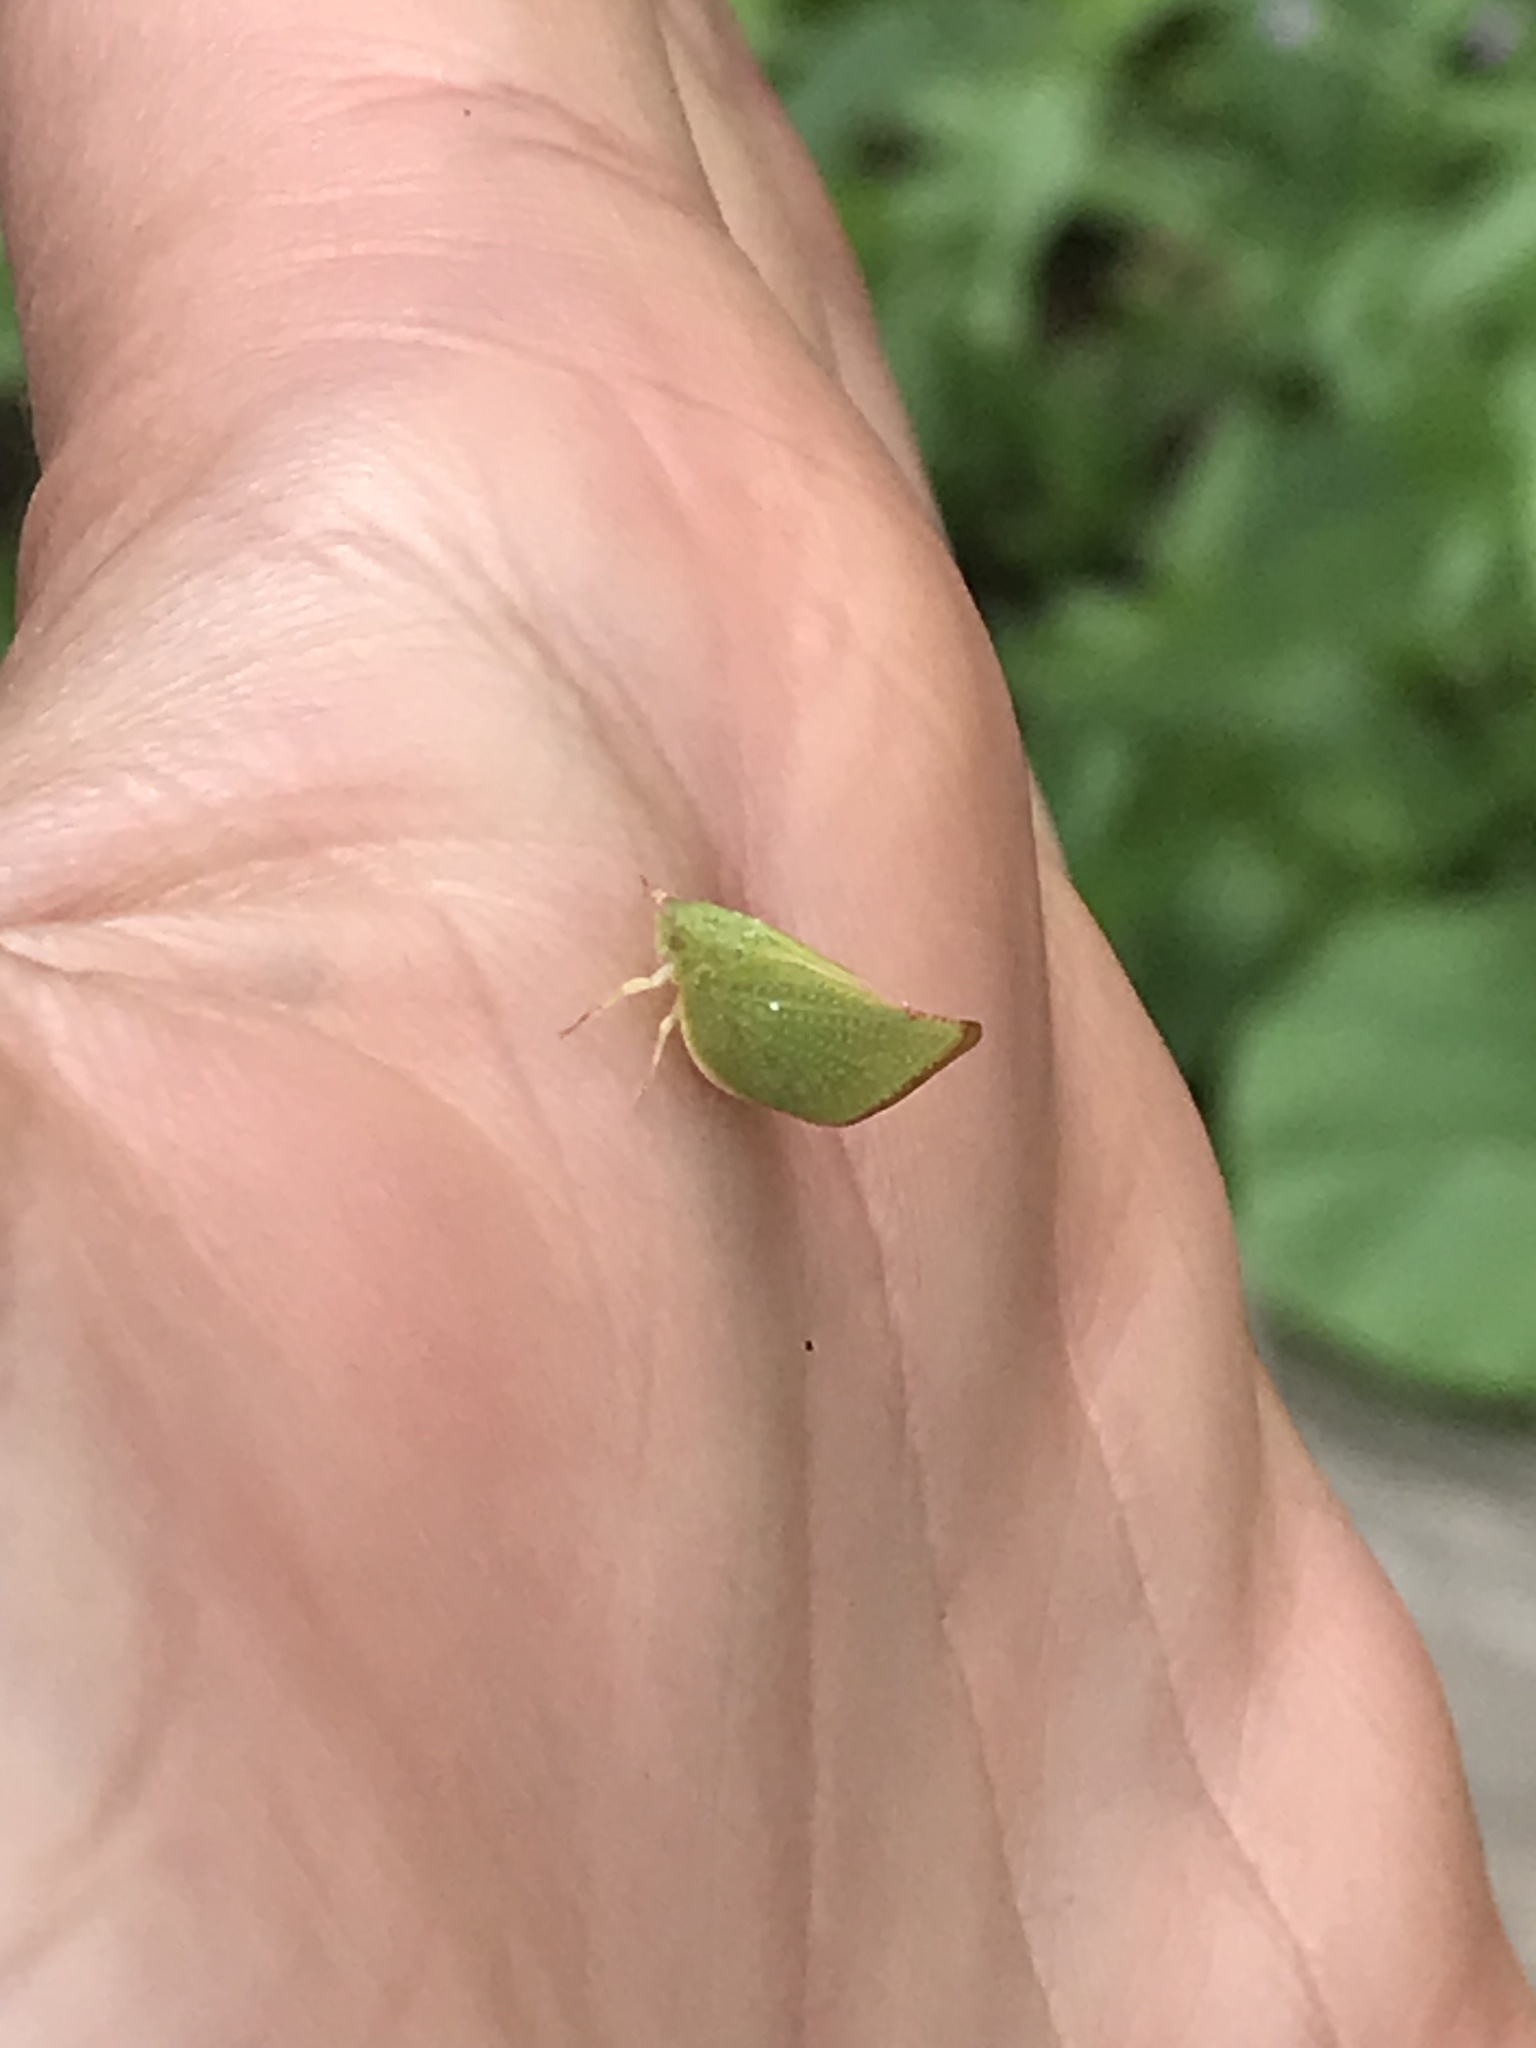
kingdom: Animalia
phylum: Arthropoda
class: Insecta
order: Hemiptera
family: Flatidae
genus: Siphanta
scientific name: Siphanta acuta
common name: Torpedo bug
